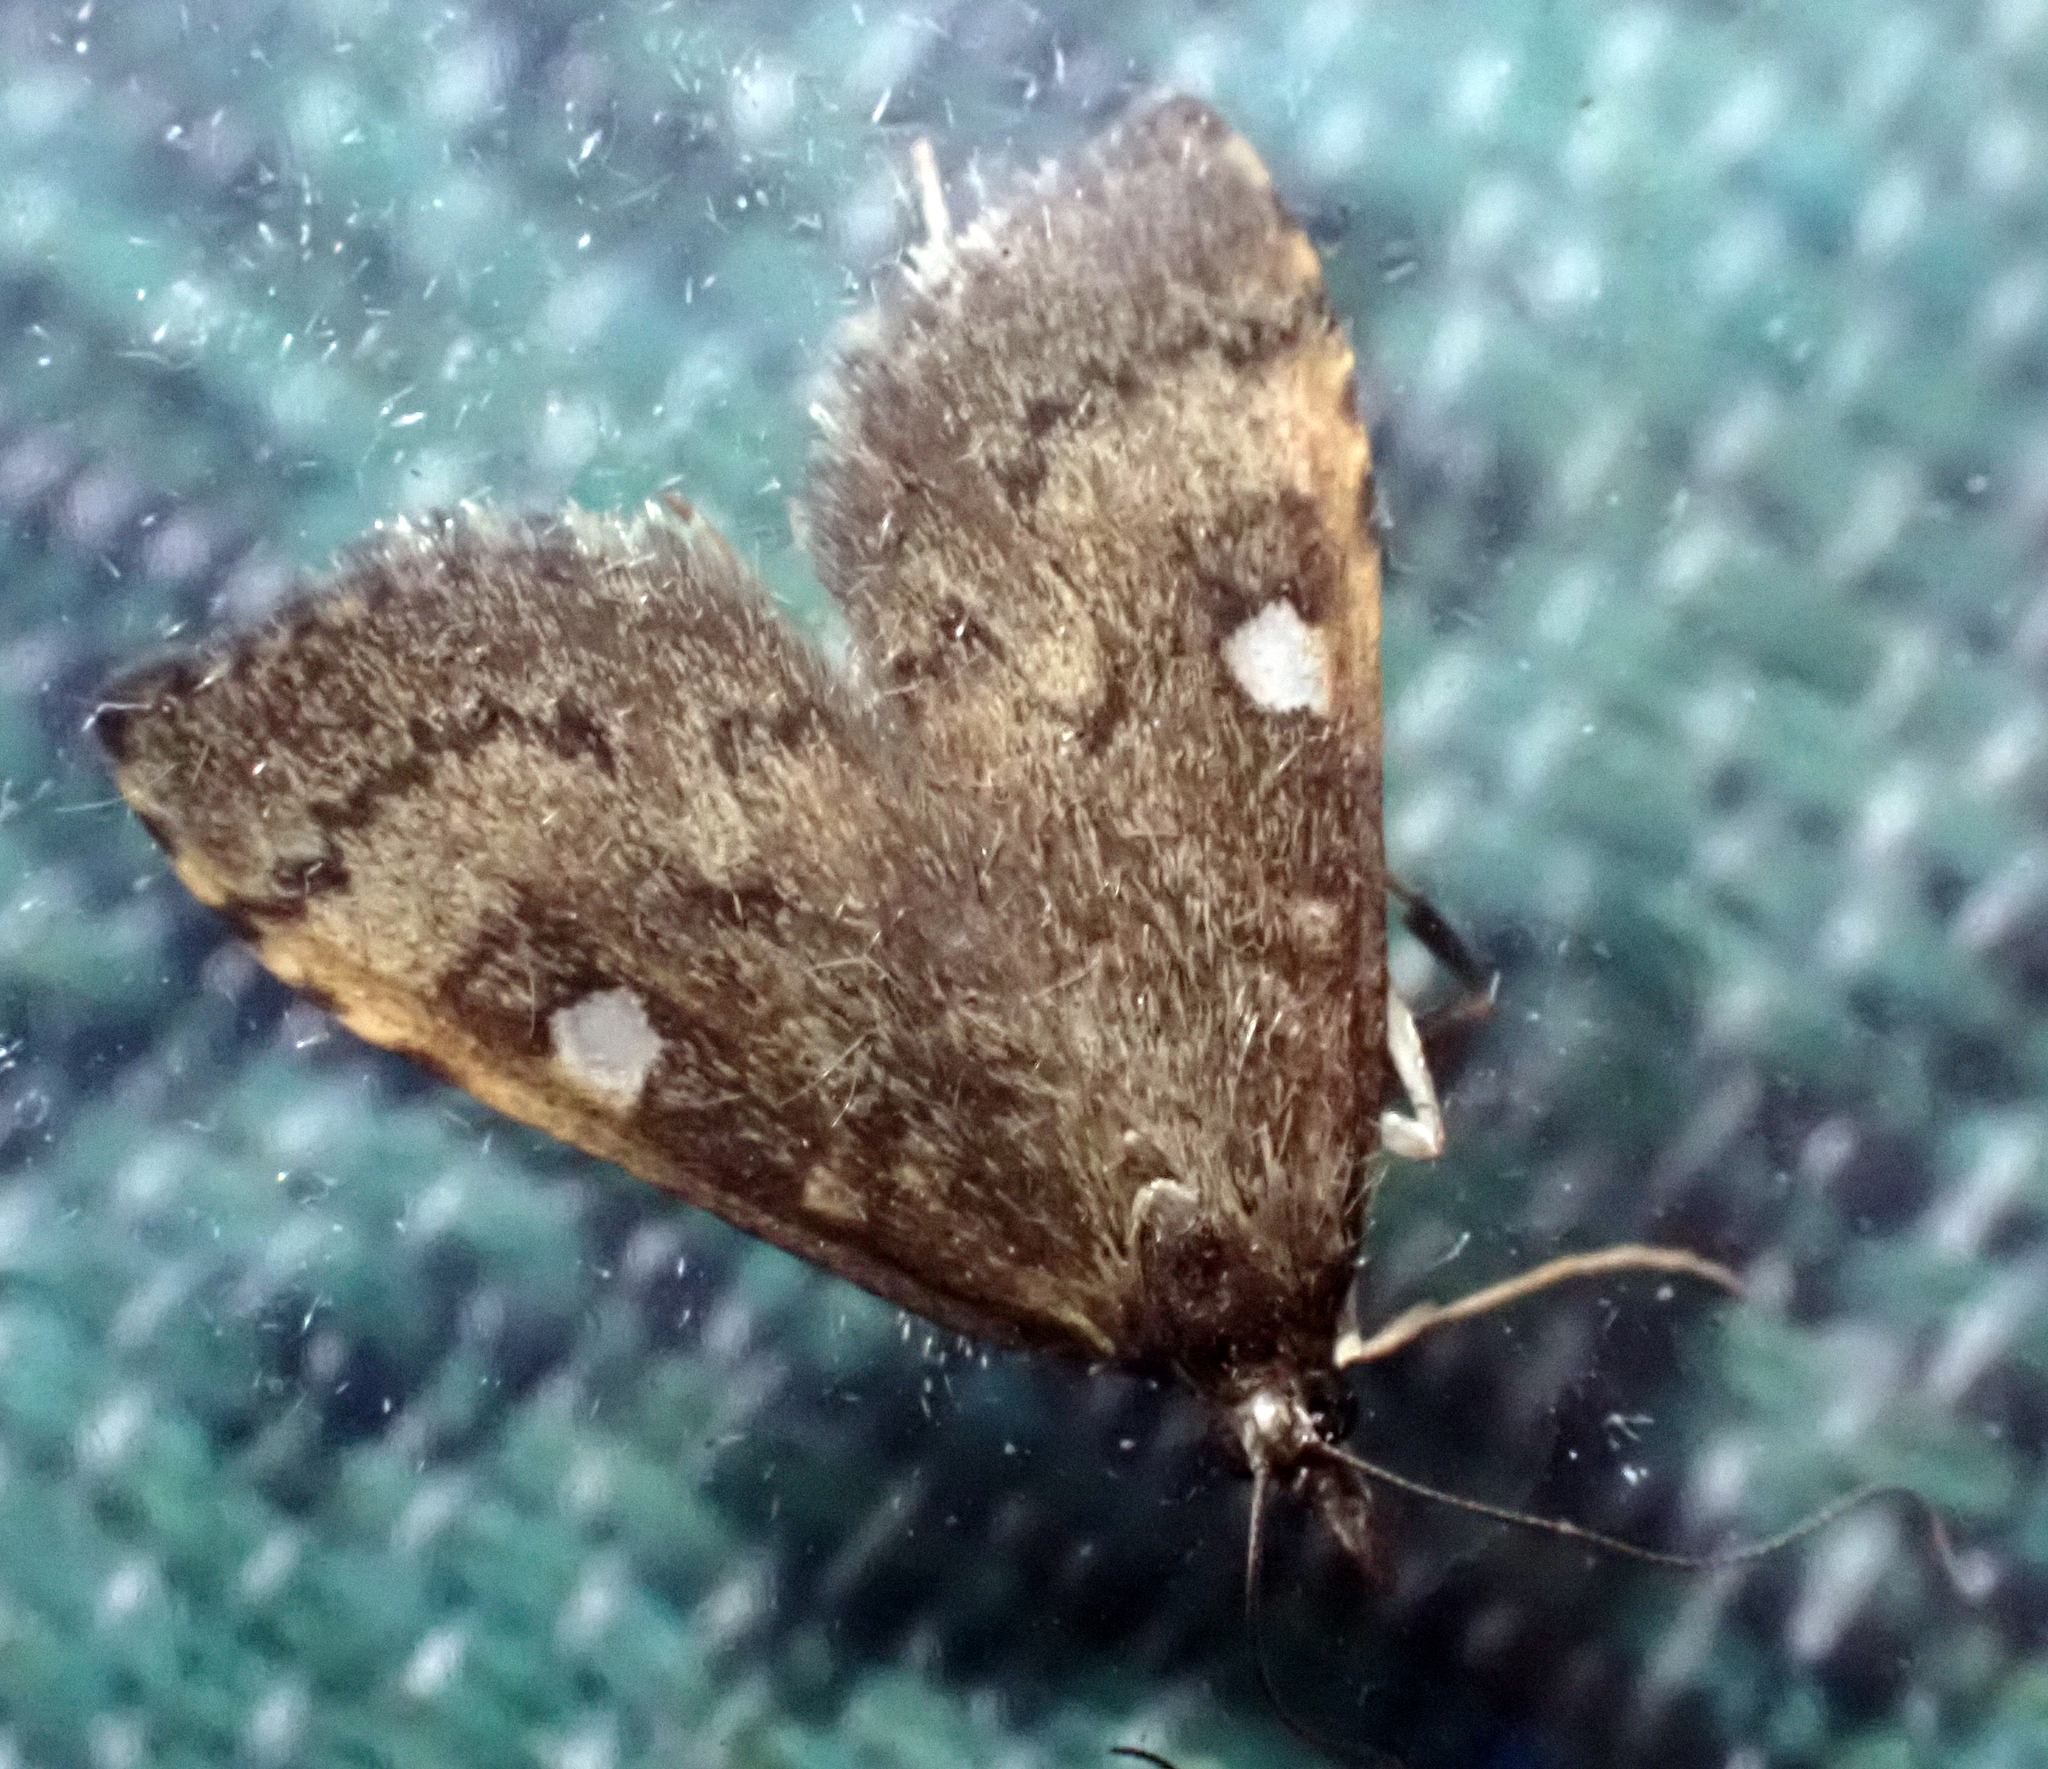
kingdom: Animalia
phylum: Arthropoda
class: Insecta
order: Lepidoptera
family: Crambidae
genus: Udea
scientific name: Udea Mnesictena marmarina
